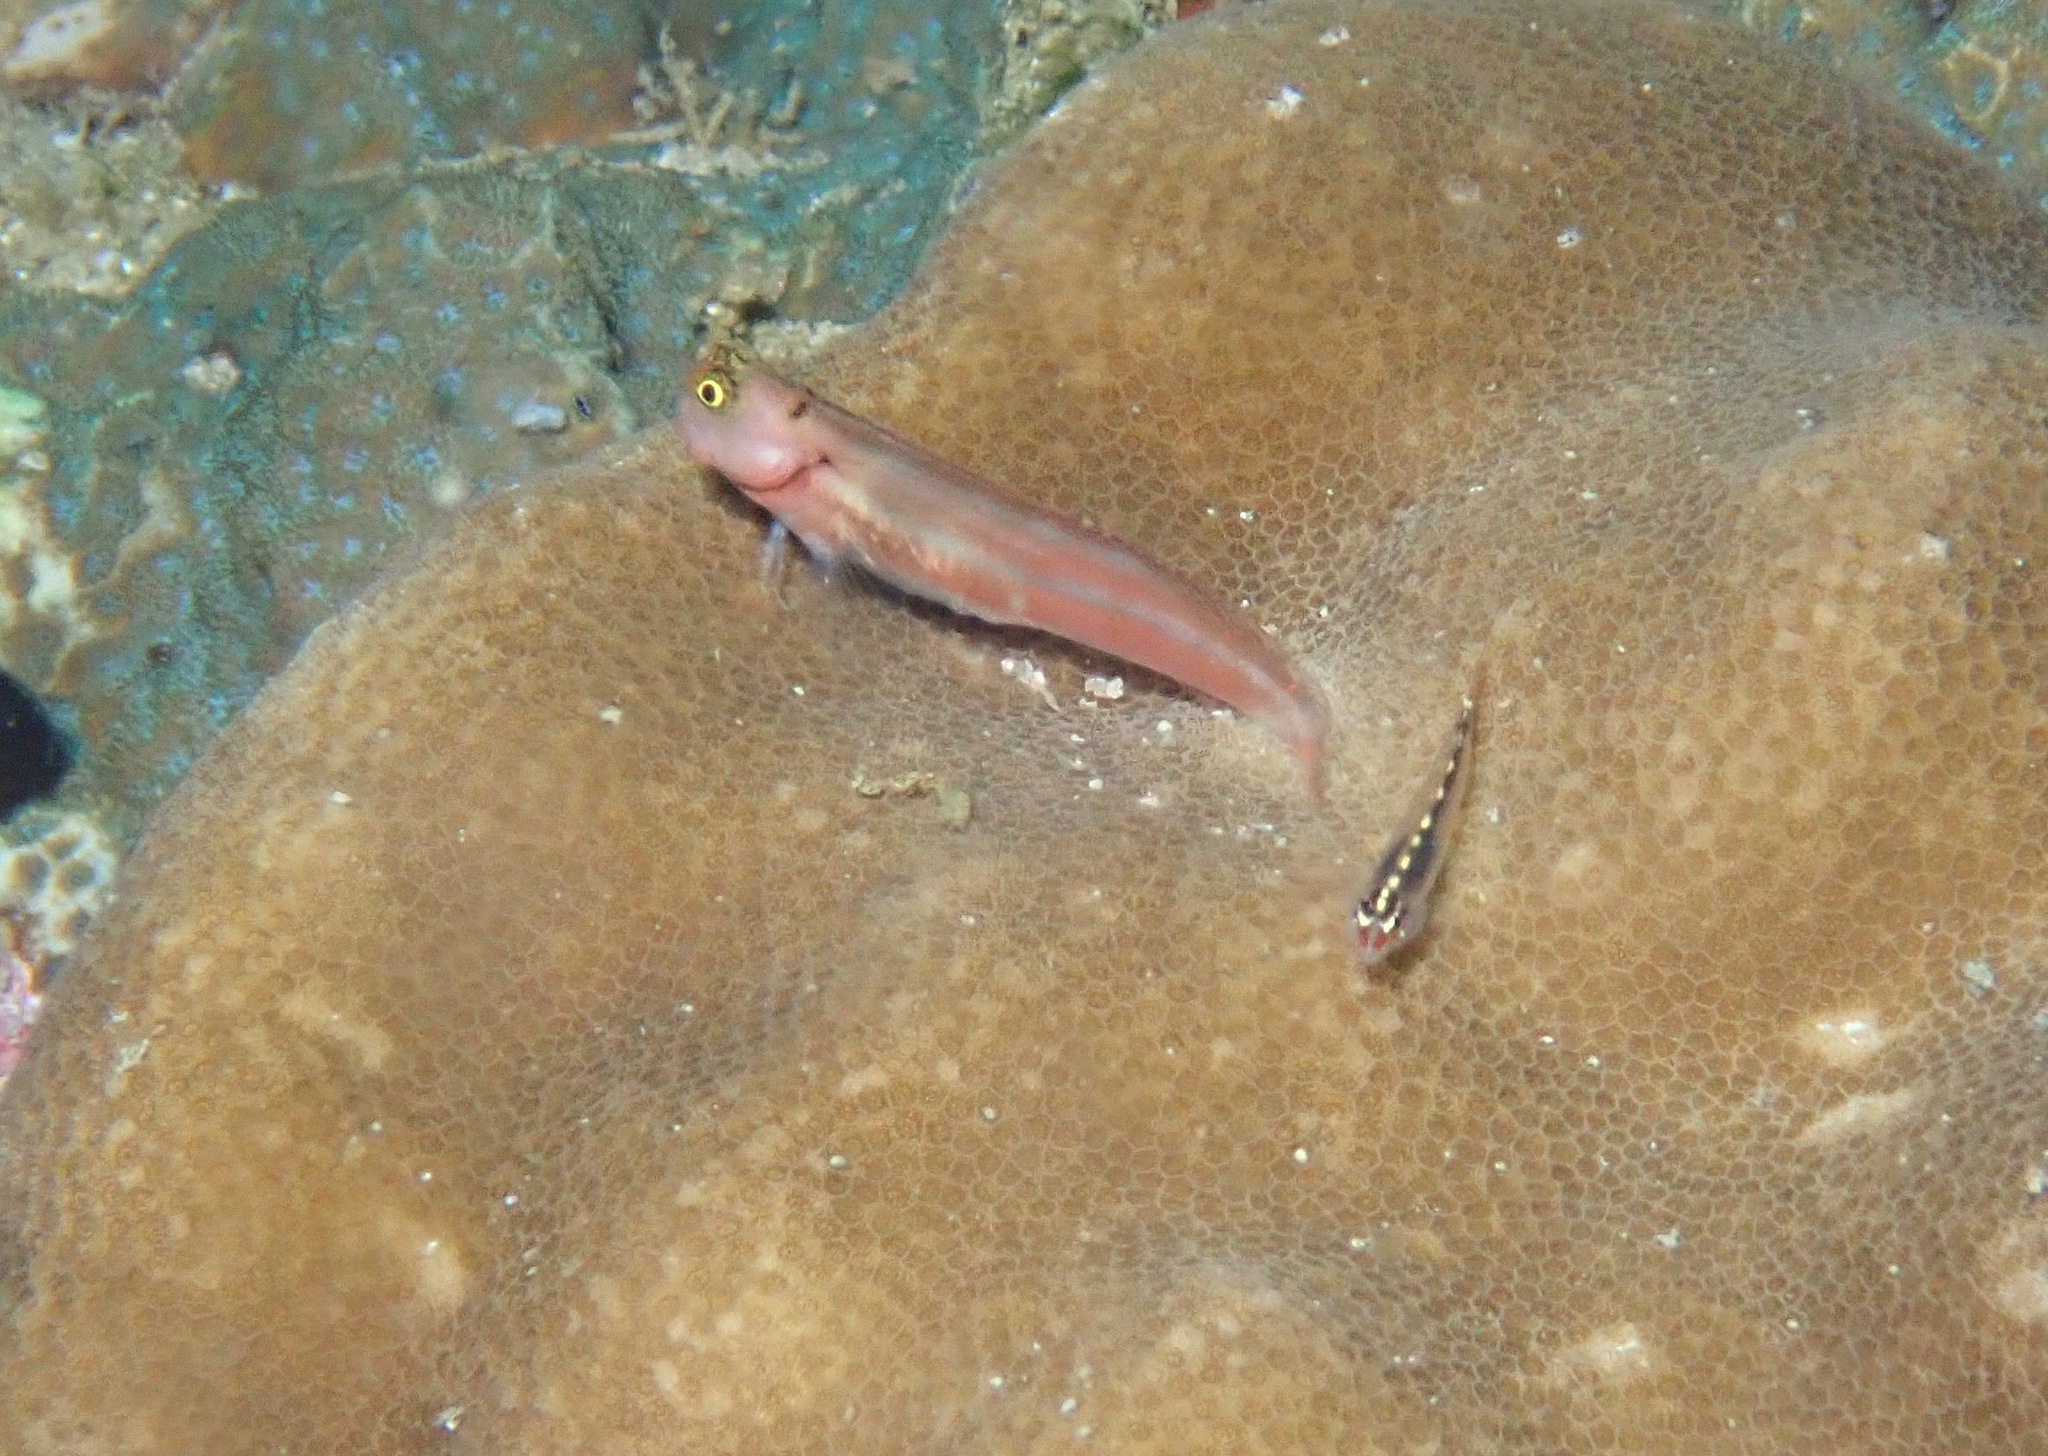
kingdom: Animalia
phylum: Chordata
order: Perciformes
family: Blenniidae
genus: Ecsenius
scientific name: Ecsenius lubbocki
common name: Lubbock's combtooth-blenny
